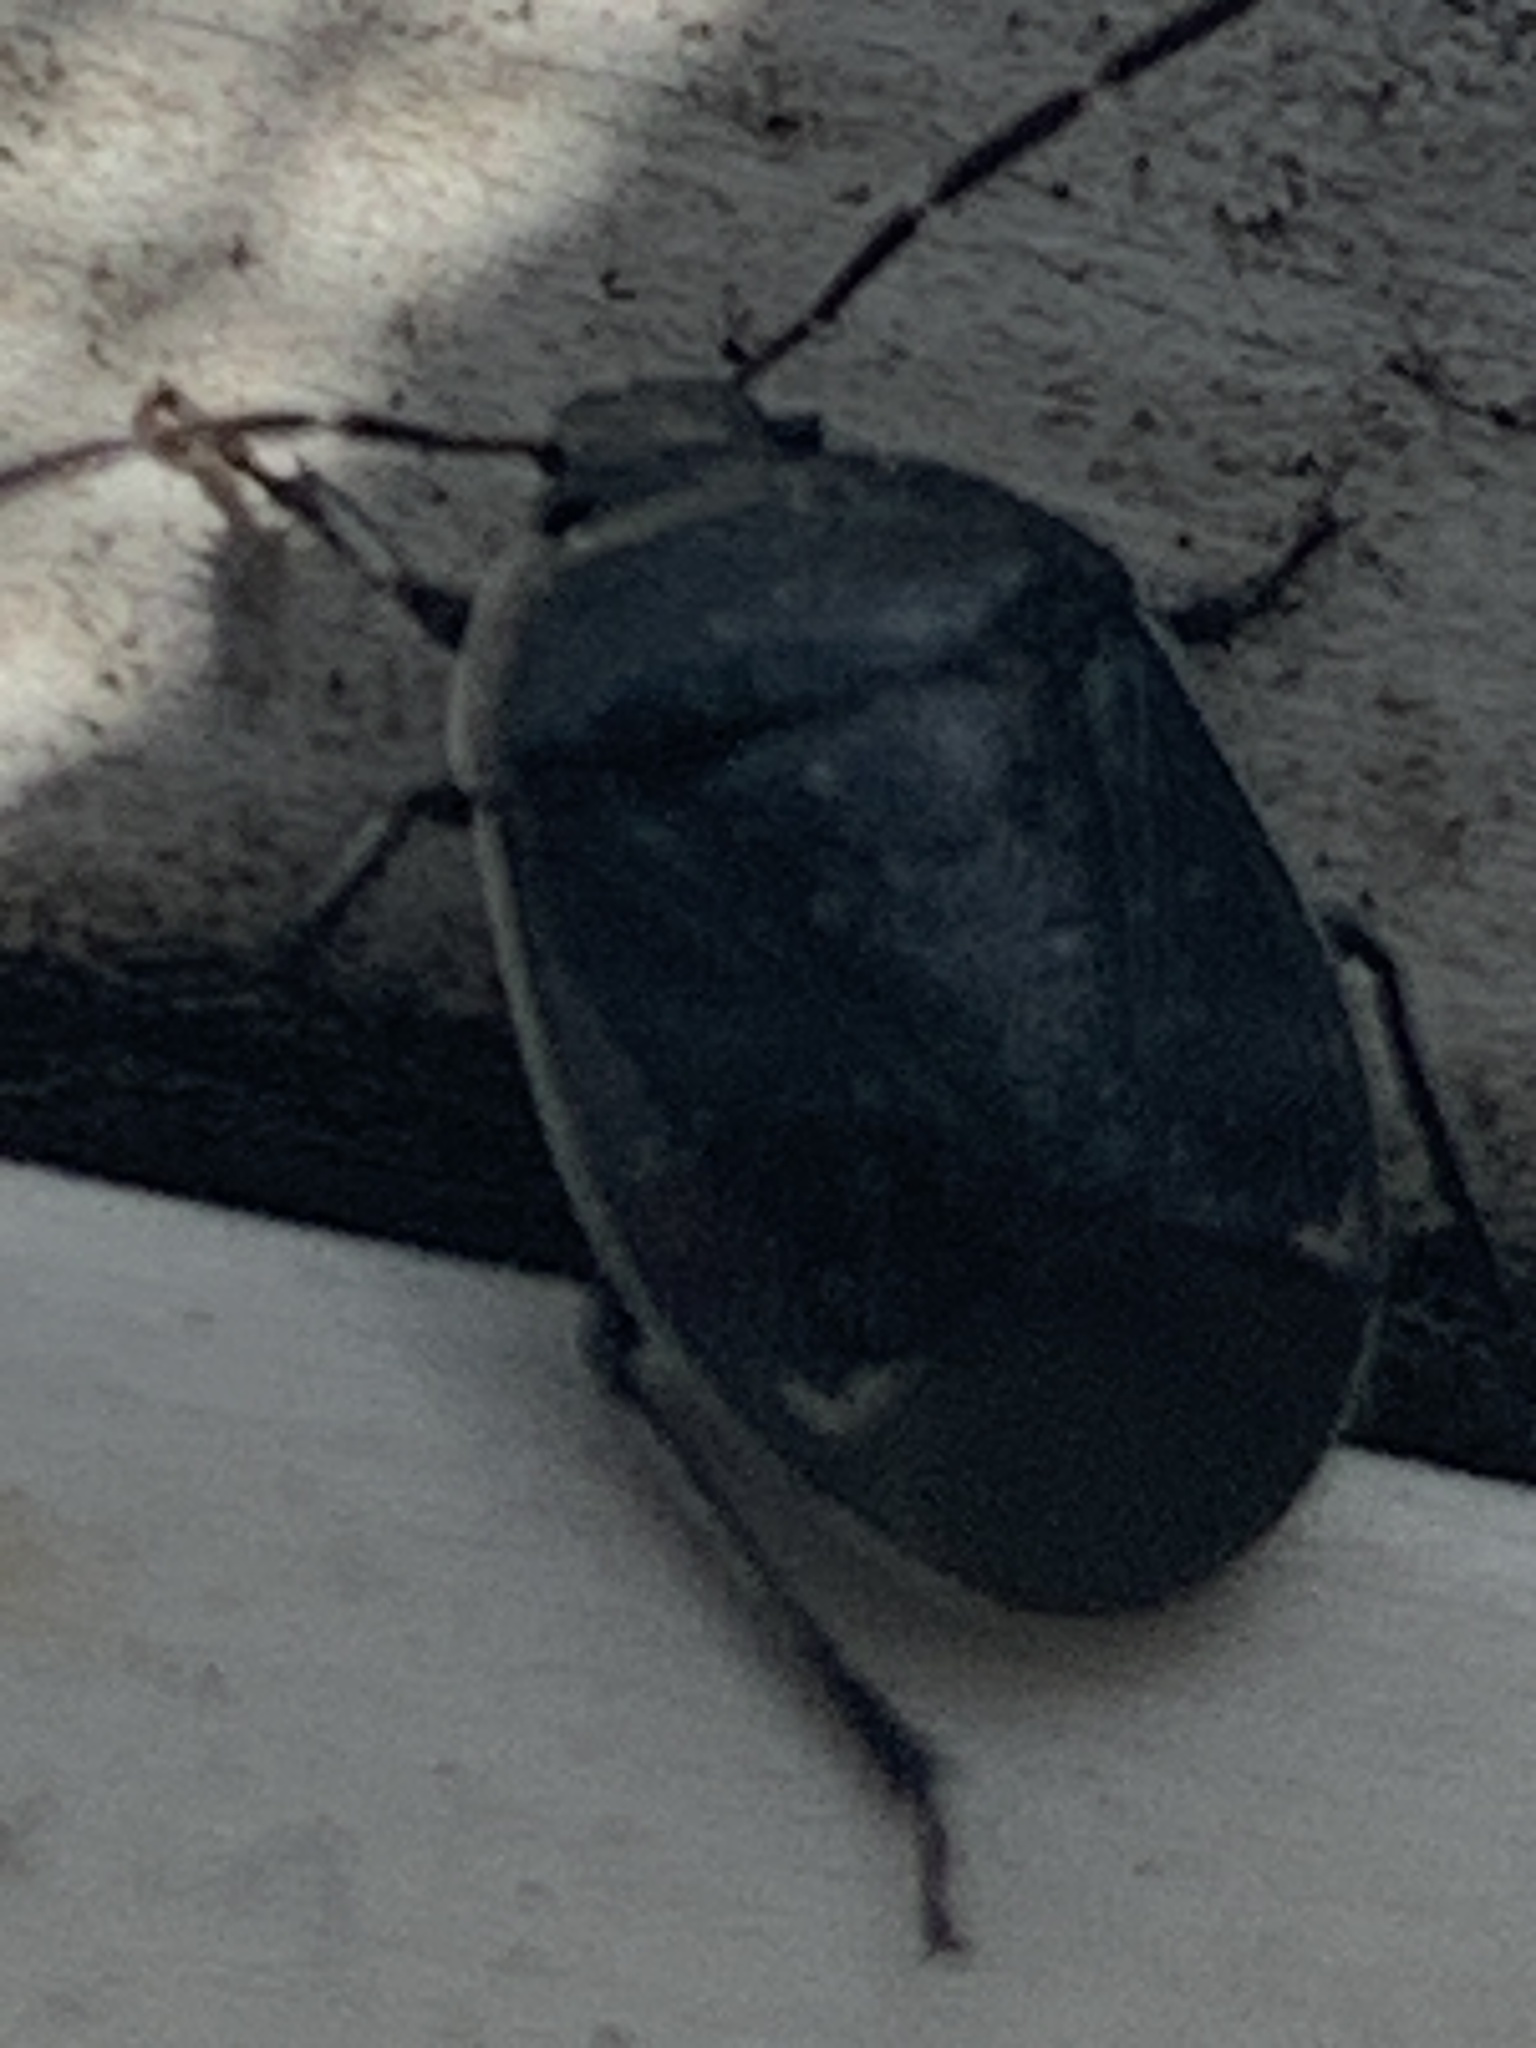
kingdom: Animalia
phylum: Arthropoda
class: Insecta
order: Hemiptera
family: Cydnidae
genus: Sehirus
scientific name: Sehirus cinctus
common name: White-margined burrower bug
